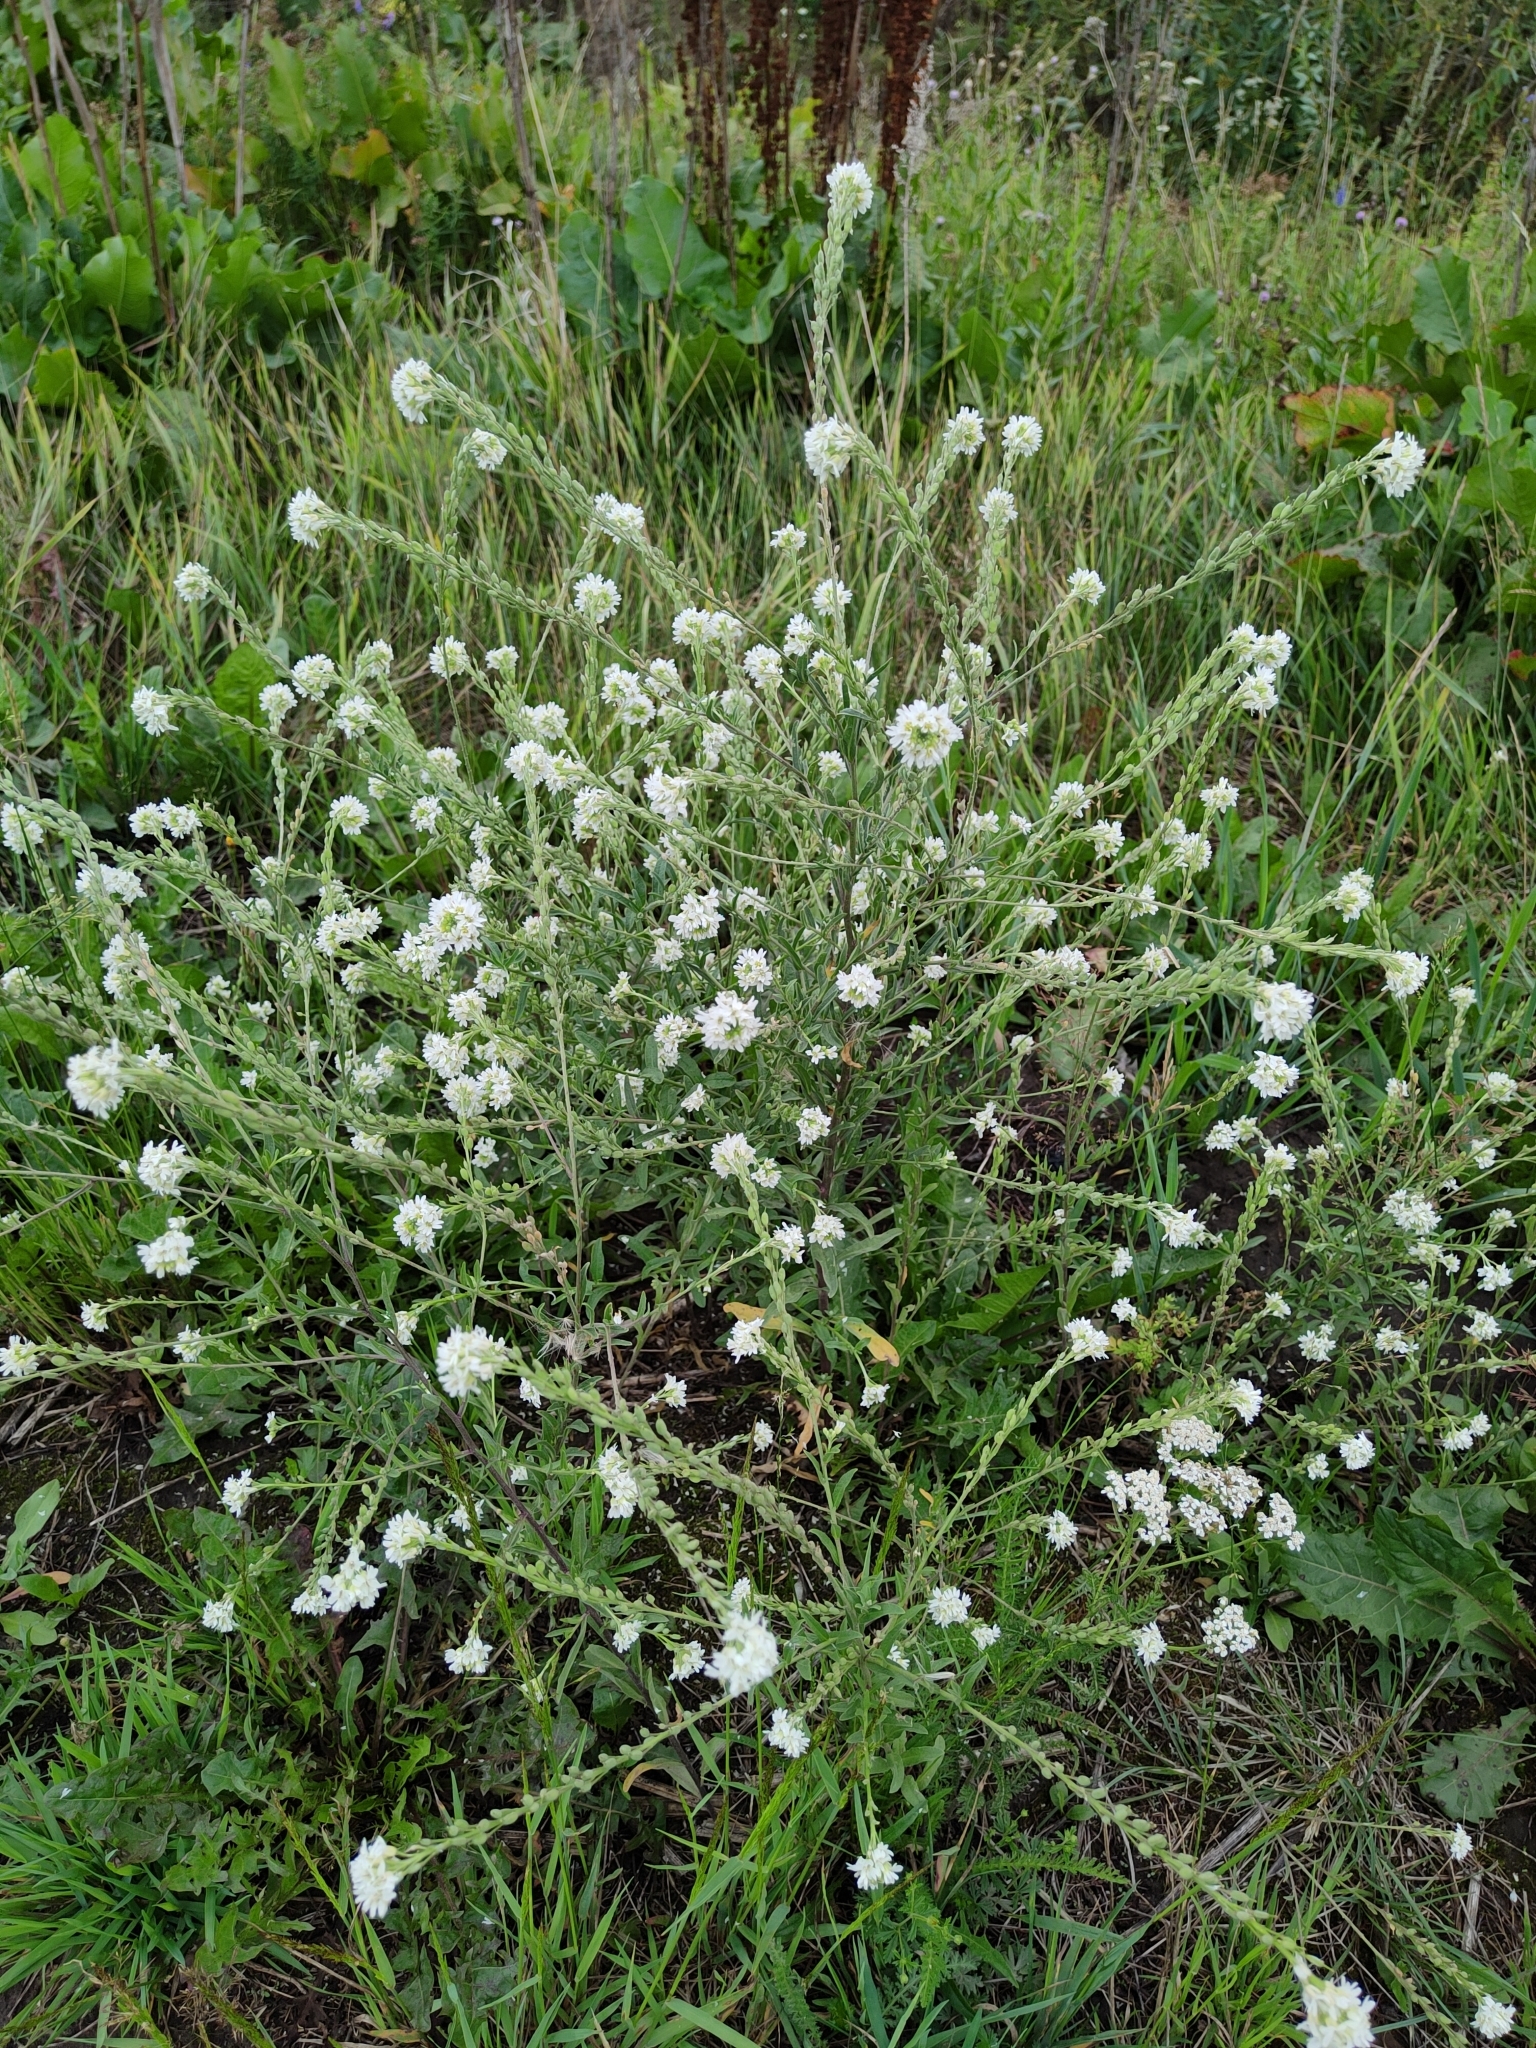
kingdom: Plantae
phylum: Tracheophyta
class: Magnoliopsida
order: Brassicales
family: Brassicaceae
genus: Berteroa
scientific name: Berteroa incana
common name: Hoary alison
